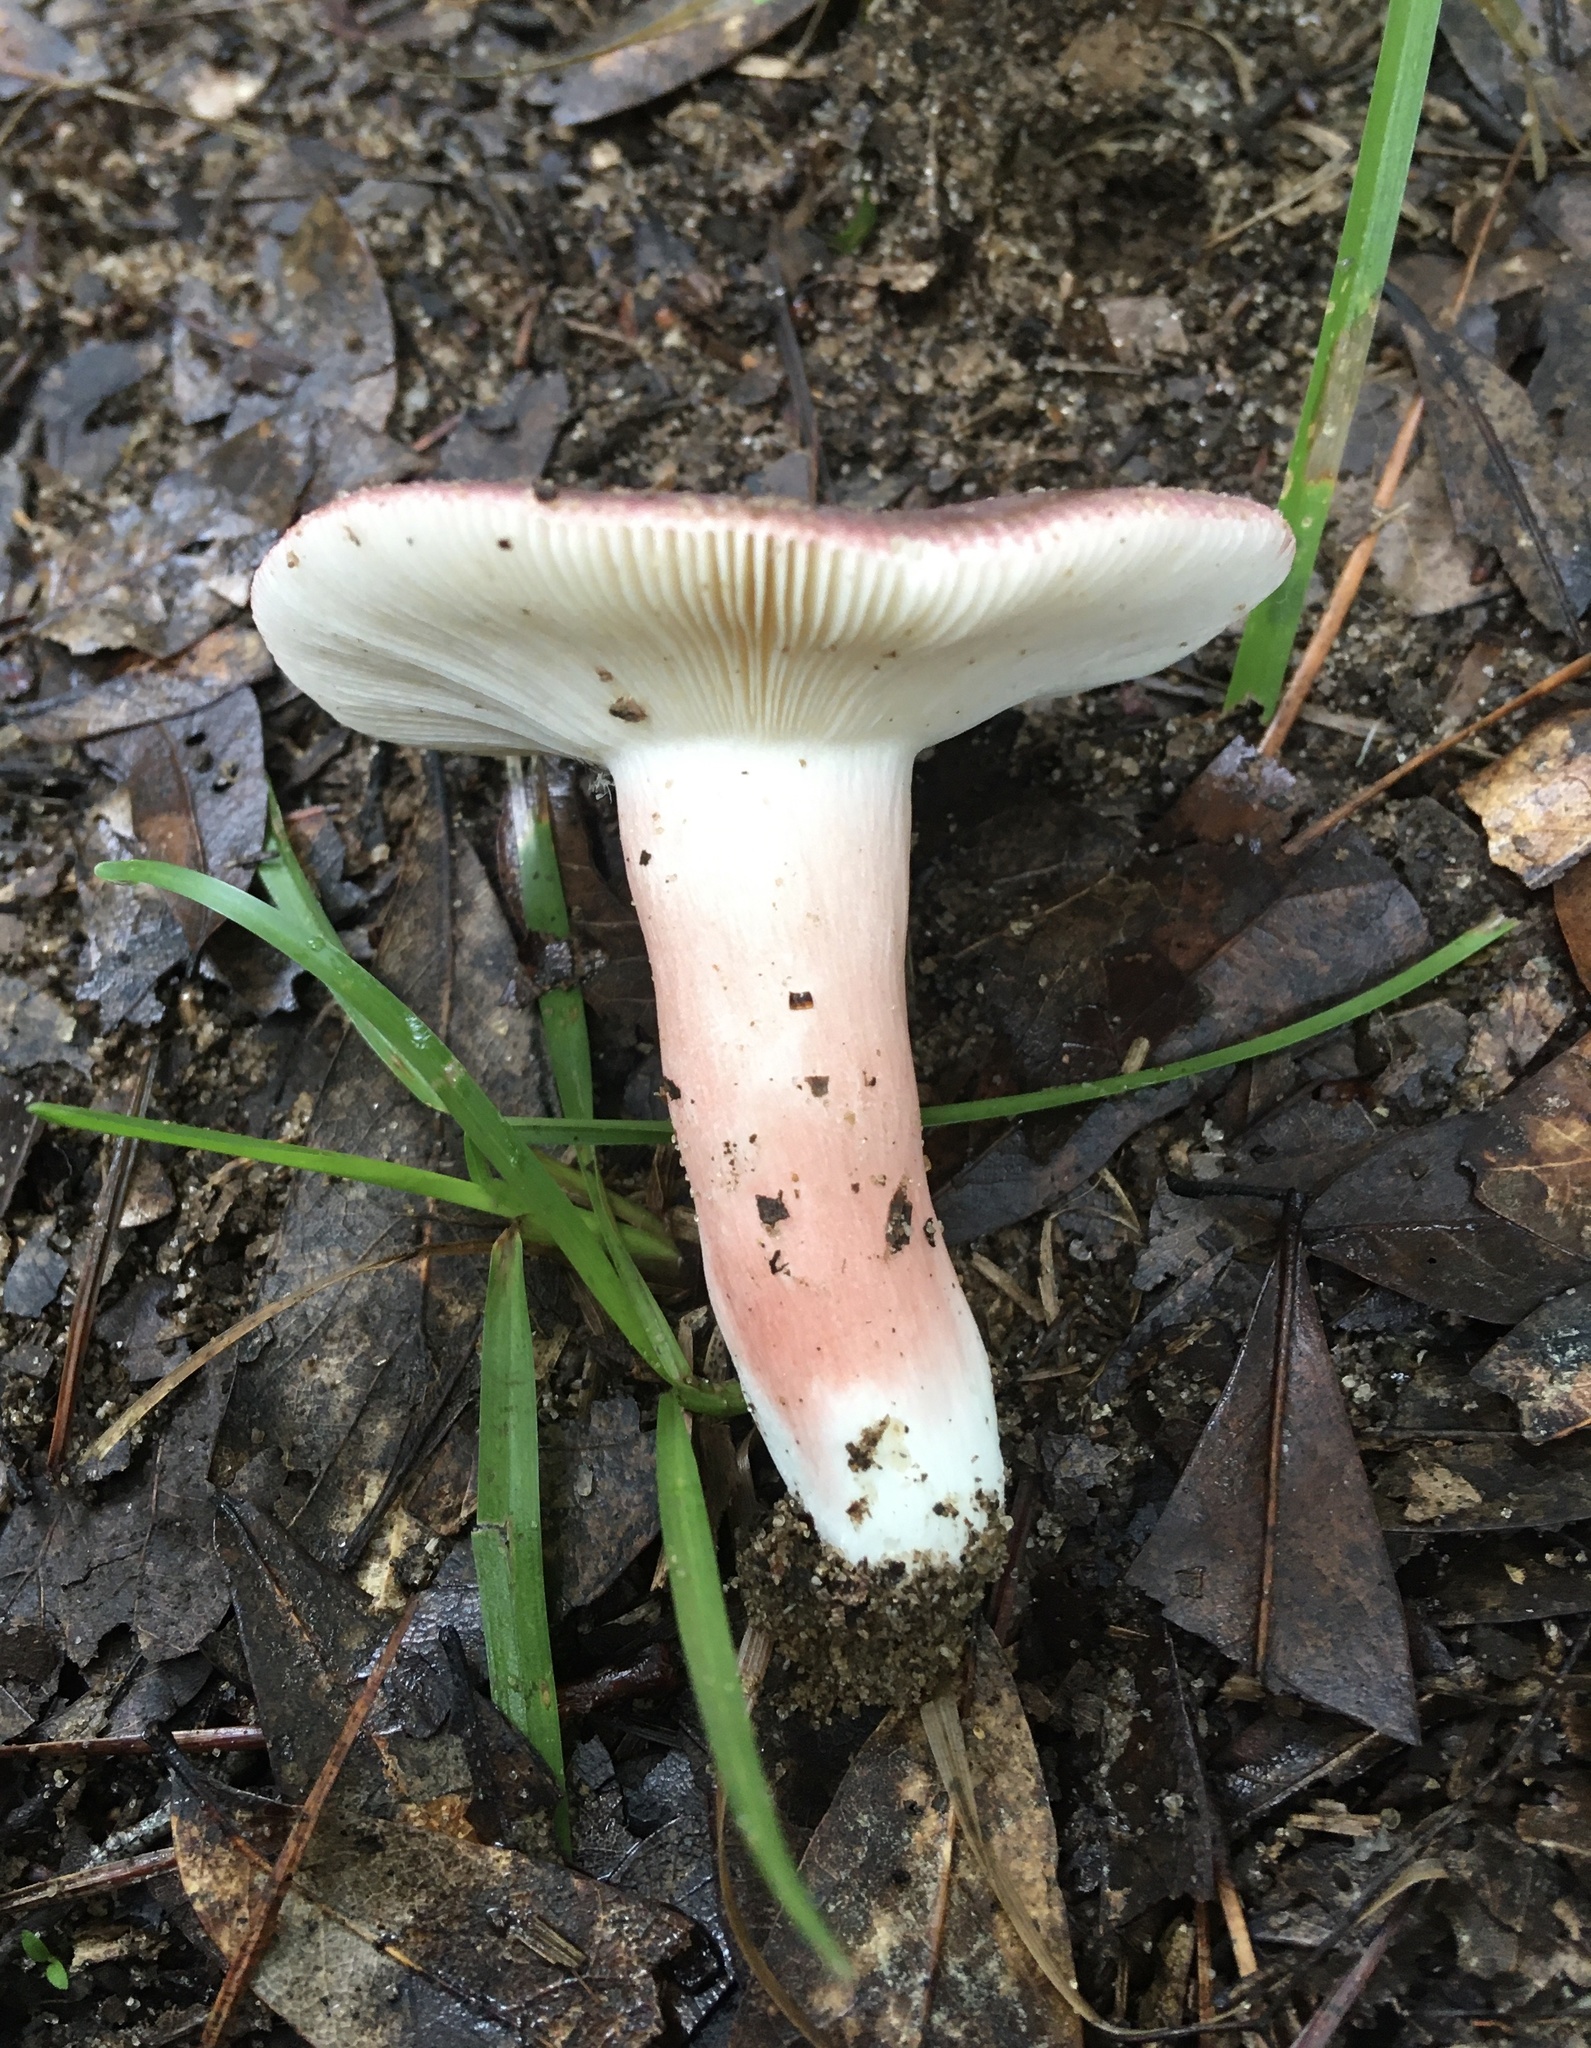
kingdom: Fungi
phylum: Basidiomycota
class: Agaricomycetes
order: Russulales
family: Russulaceae
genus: Russula
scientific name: Russula mariae
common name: Purple-bloom russula
